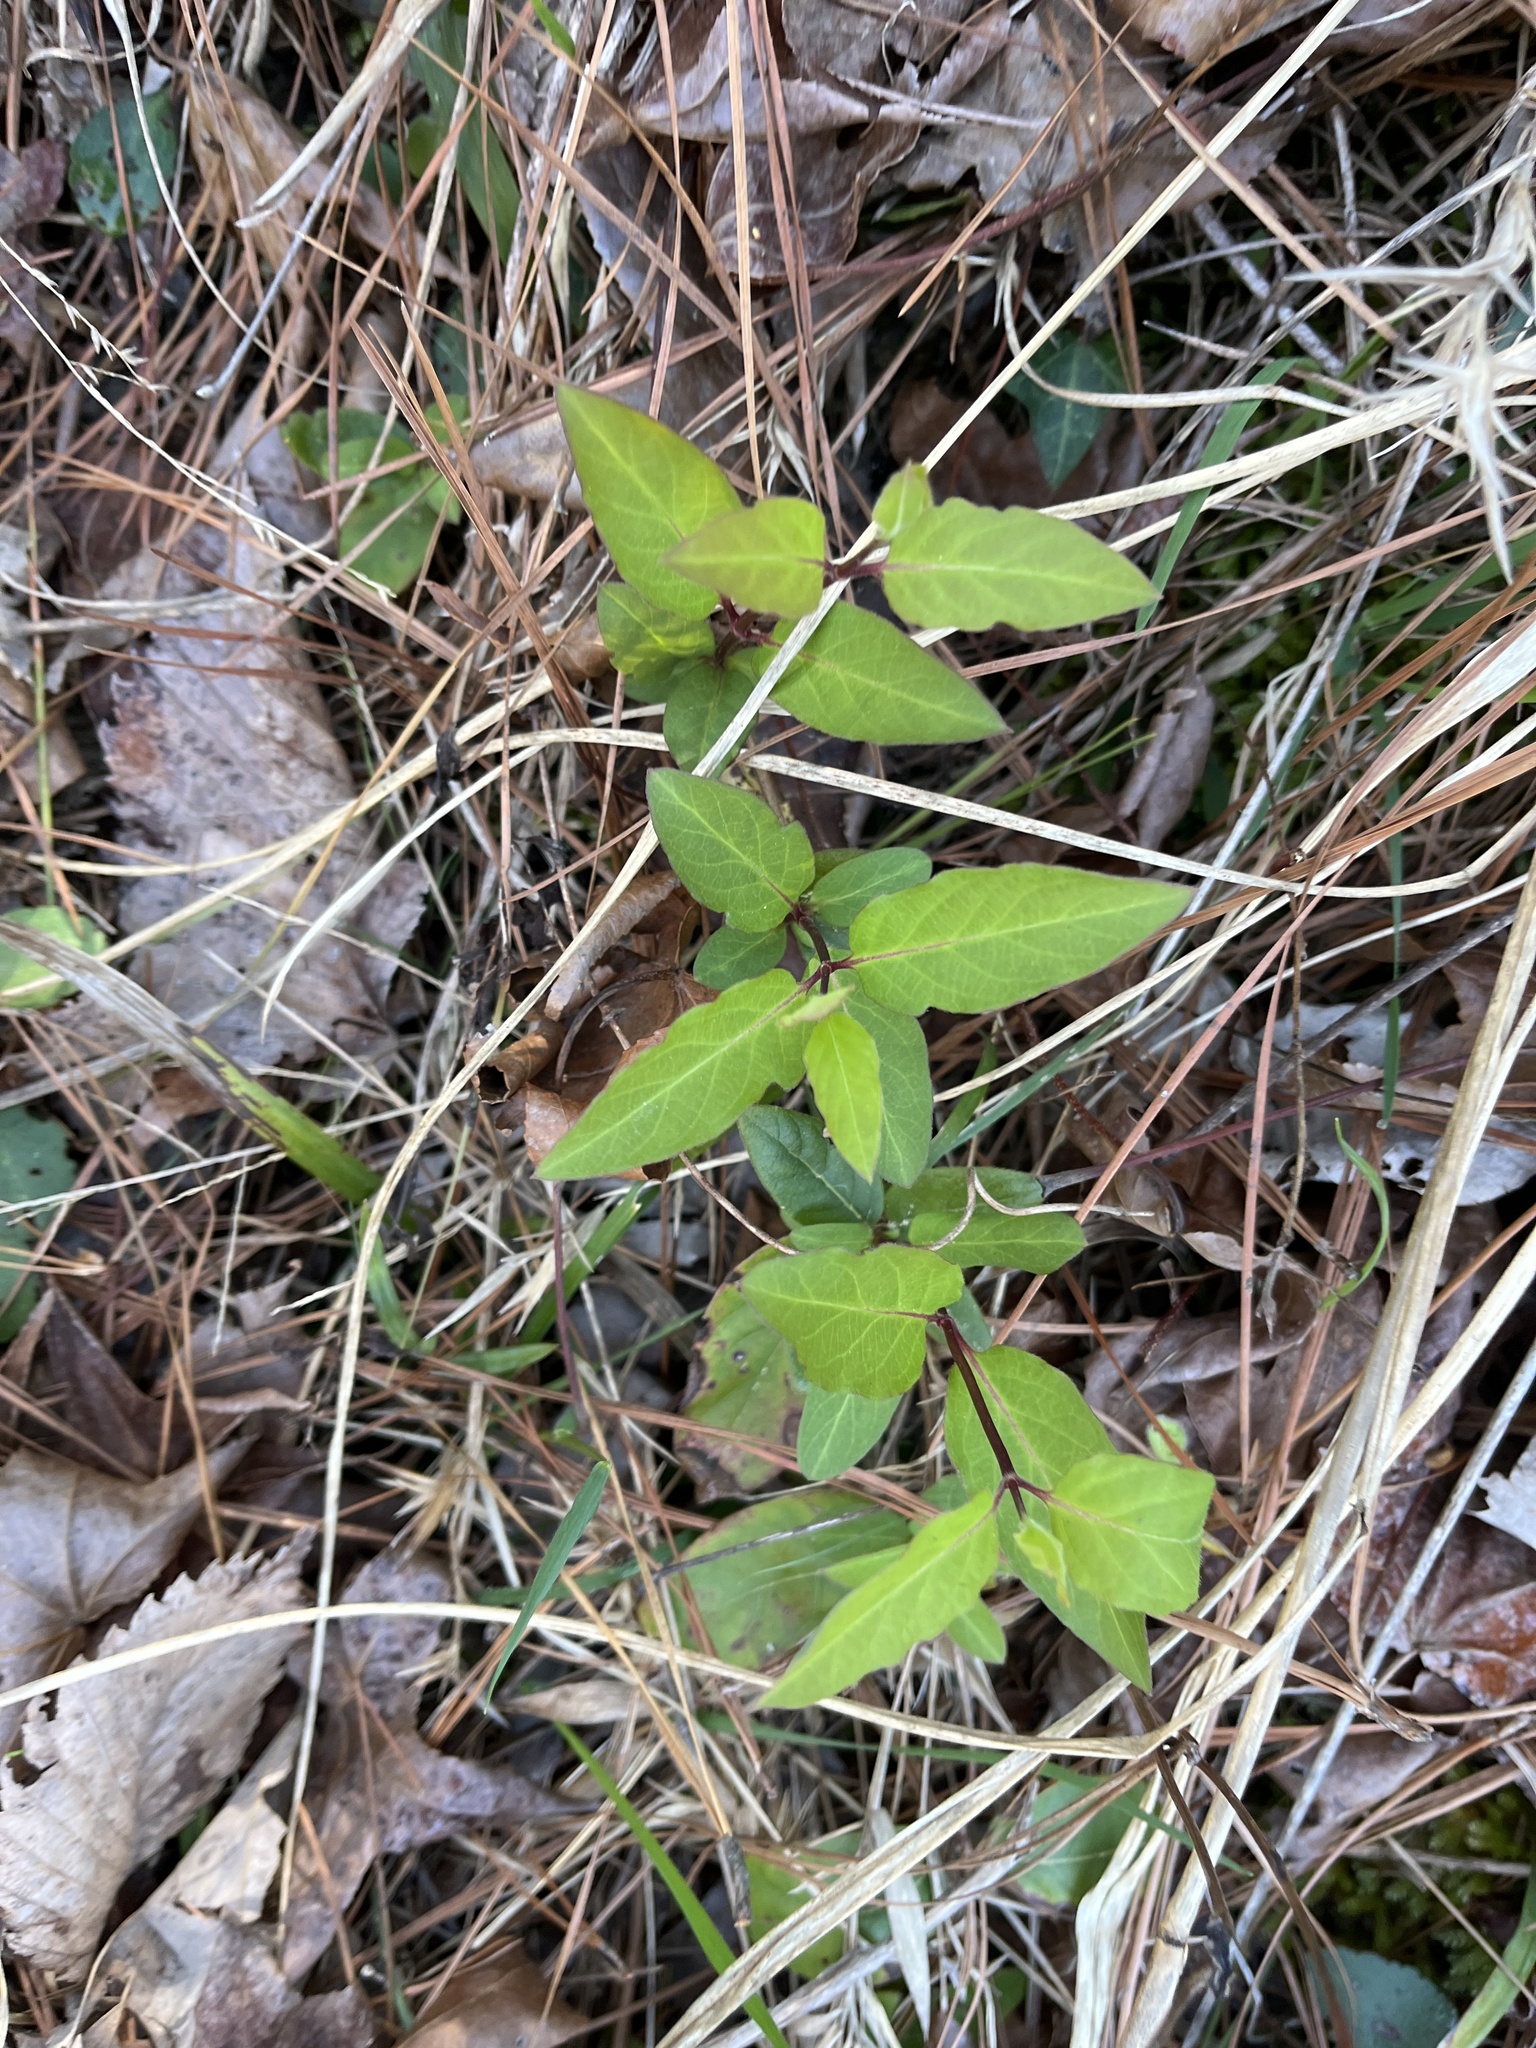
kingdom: Plantae
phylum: Tracheophyta
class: Magnoliopsida
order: Dipsacales
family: Caprifoliaceae
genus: Lonicera
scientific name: Lonicera japonica
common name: Japanese honeysuckle
